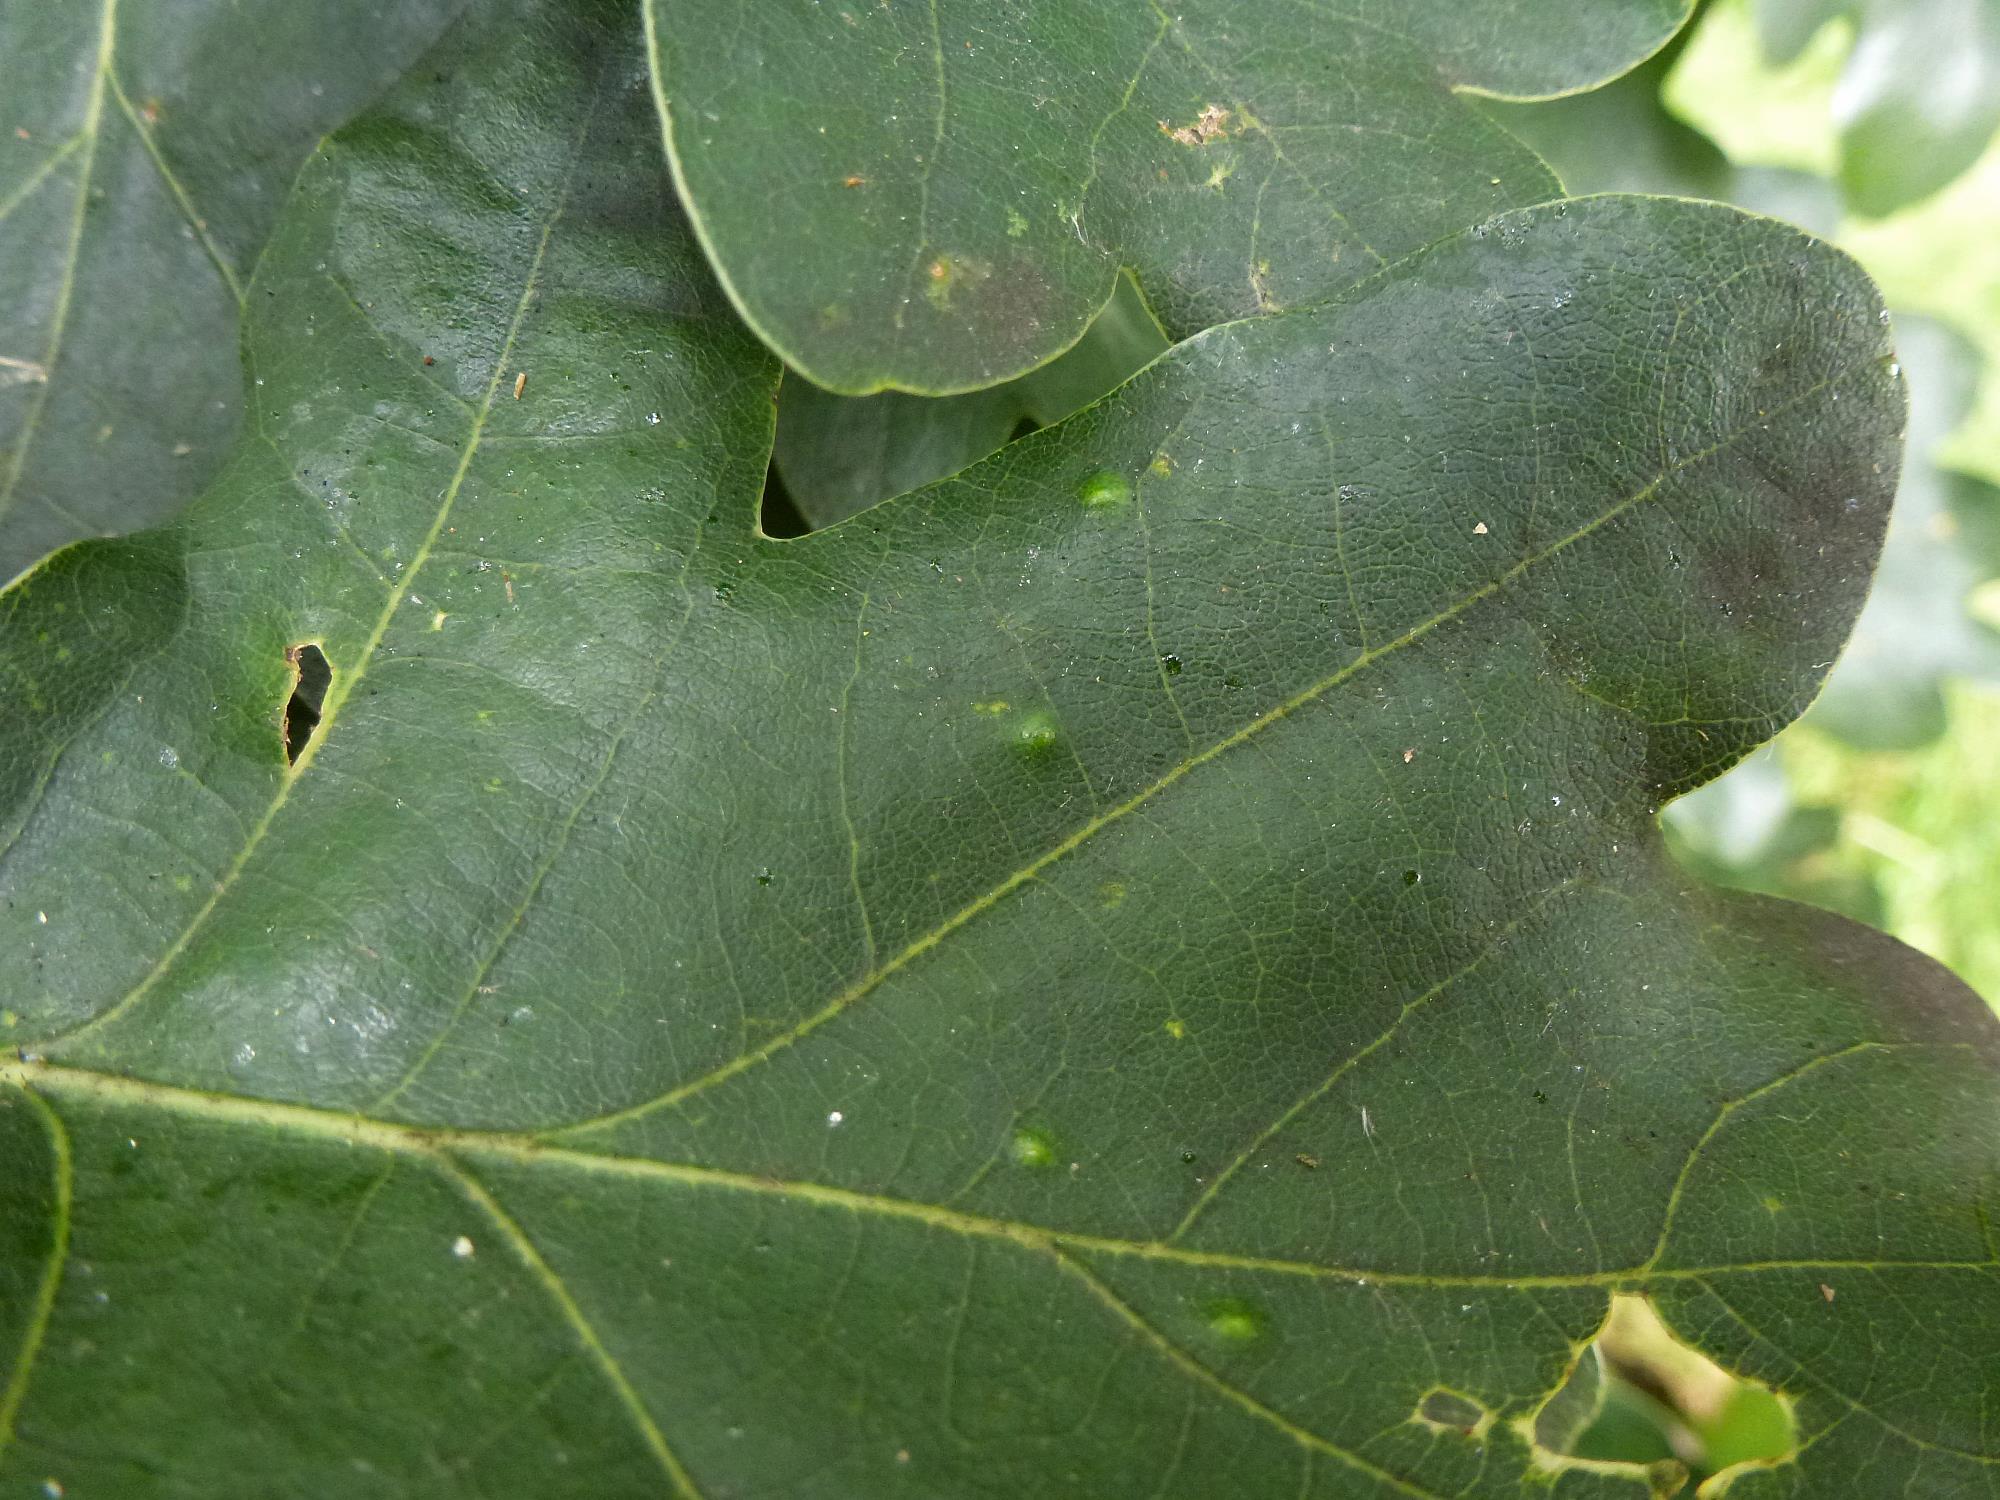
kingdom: Animalia
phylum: Arthropoda
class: Insecta
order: Hemiptera
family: Triozidae
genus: Trioza
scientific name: Trioza remota
